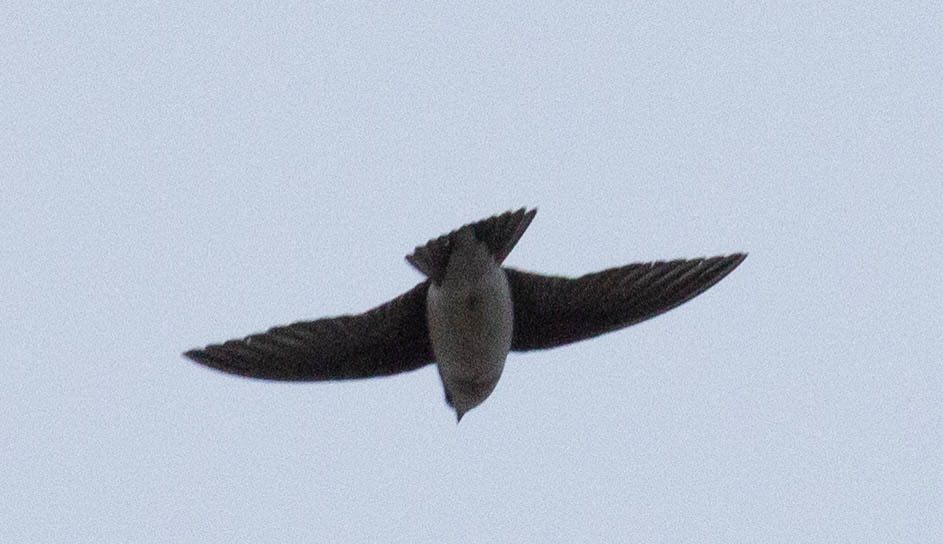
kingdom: Animalia
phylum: Chordata
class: Aves
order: Passeriformes
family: Hirundinidae
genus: Tachycineta
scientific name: Tachycineta bicolor
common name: Tree swallow
